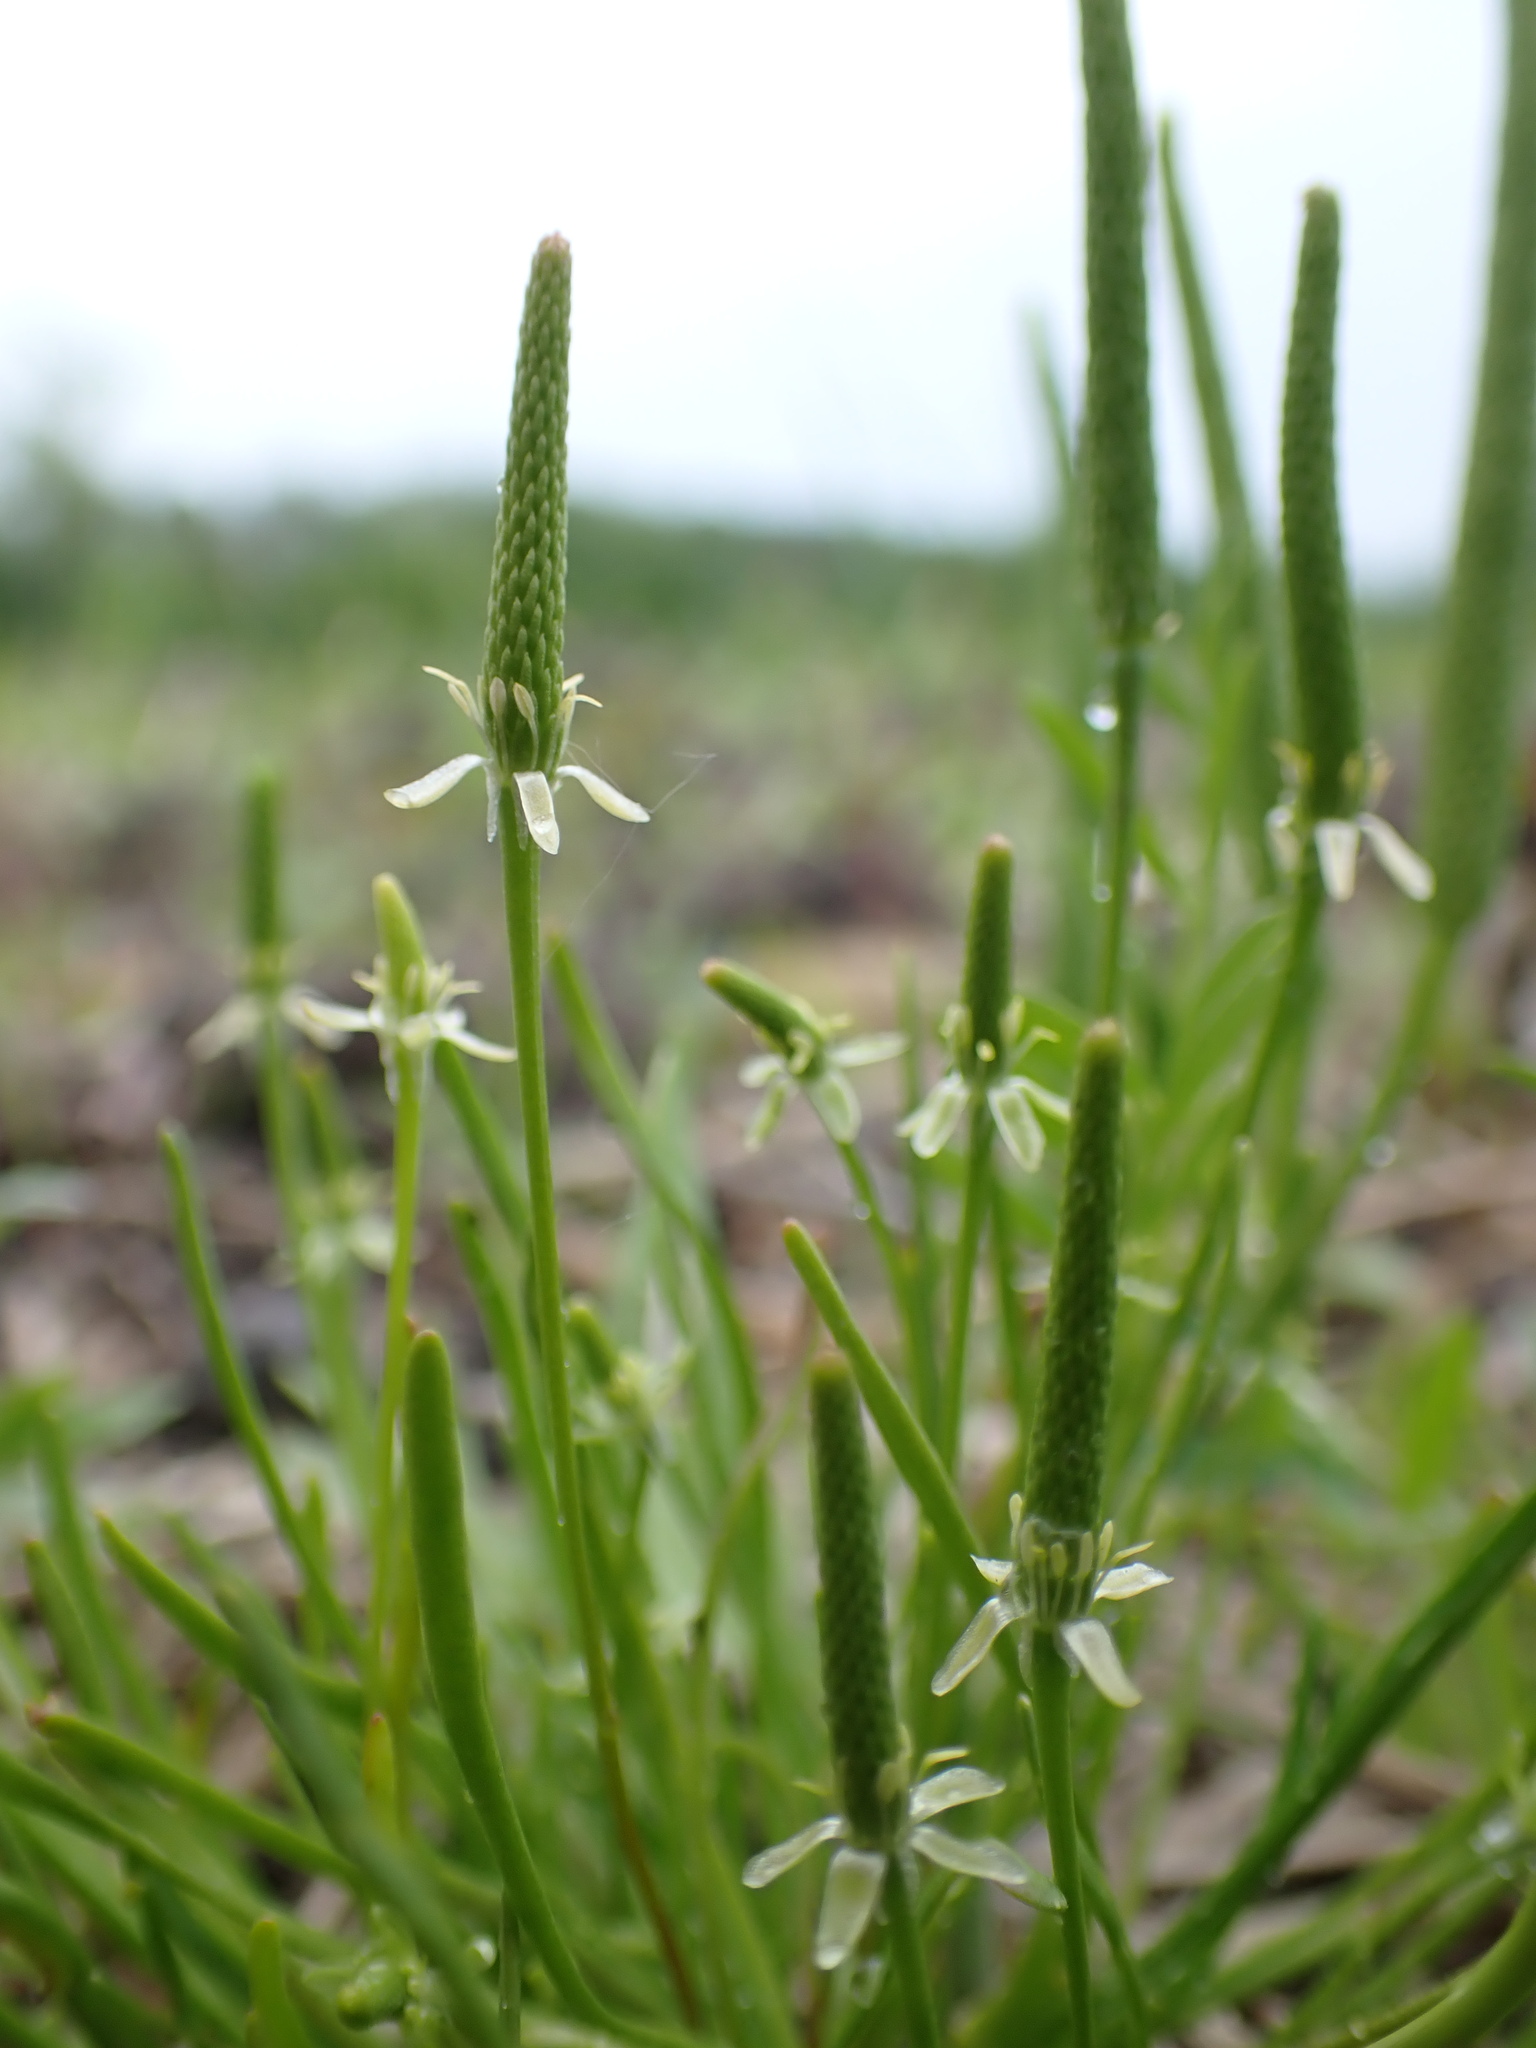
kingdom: Plantae
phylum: Tracheophyta
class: Magnoliopsida
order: Ranunculales
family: Ranunculaceae
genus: Myosurus
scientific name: Myosurus minimus
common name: Mousetail
